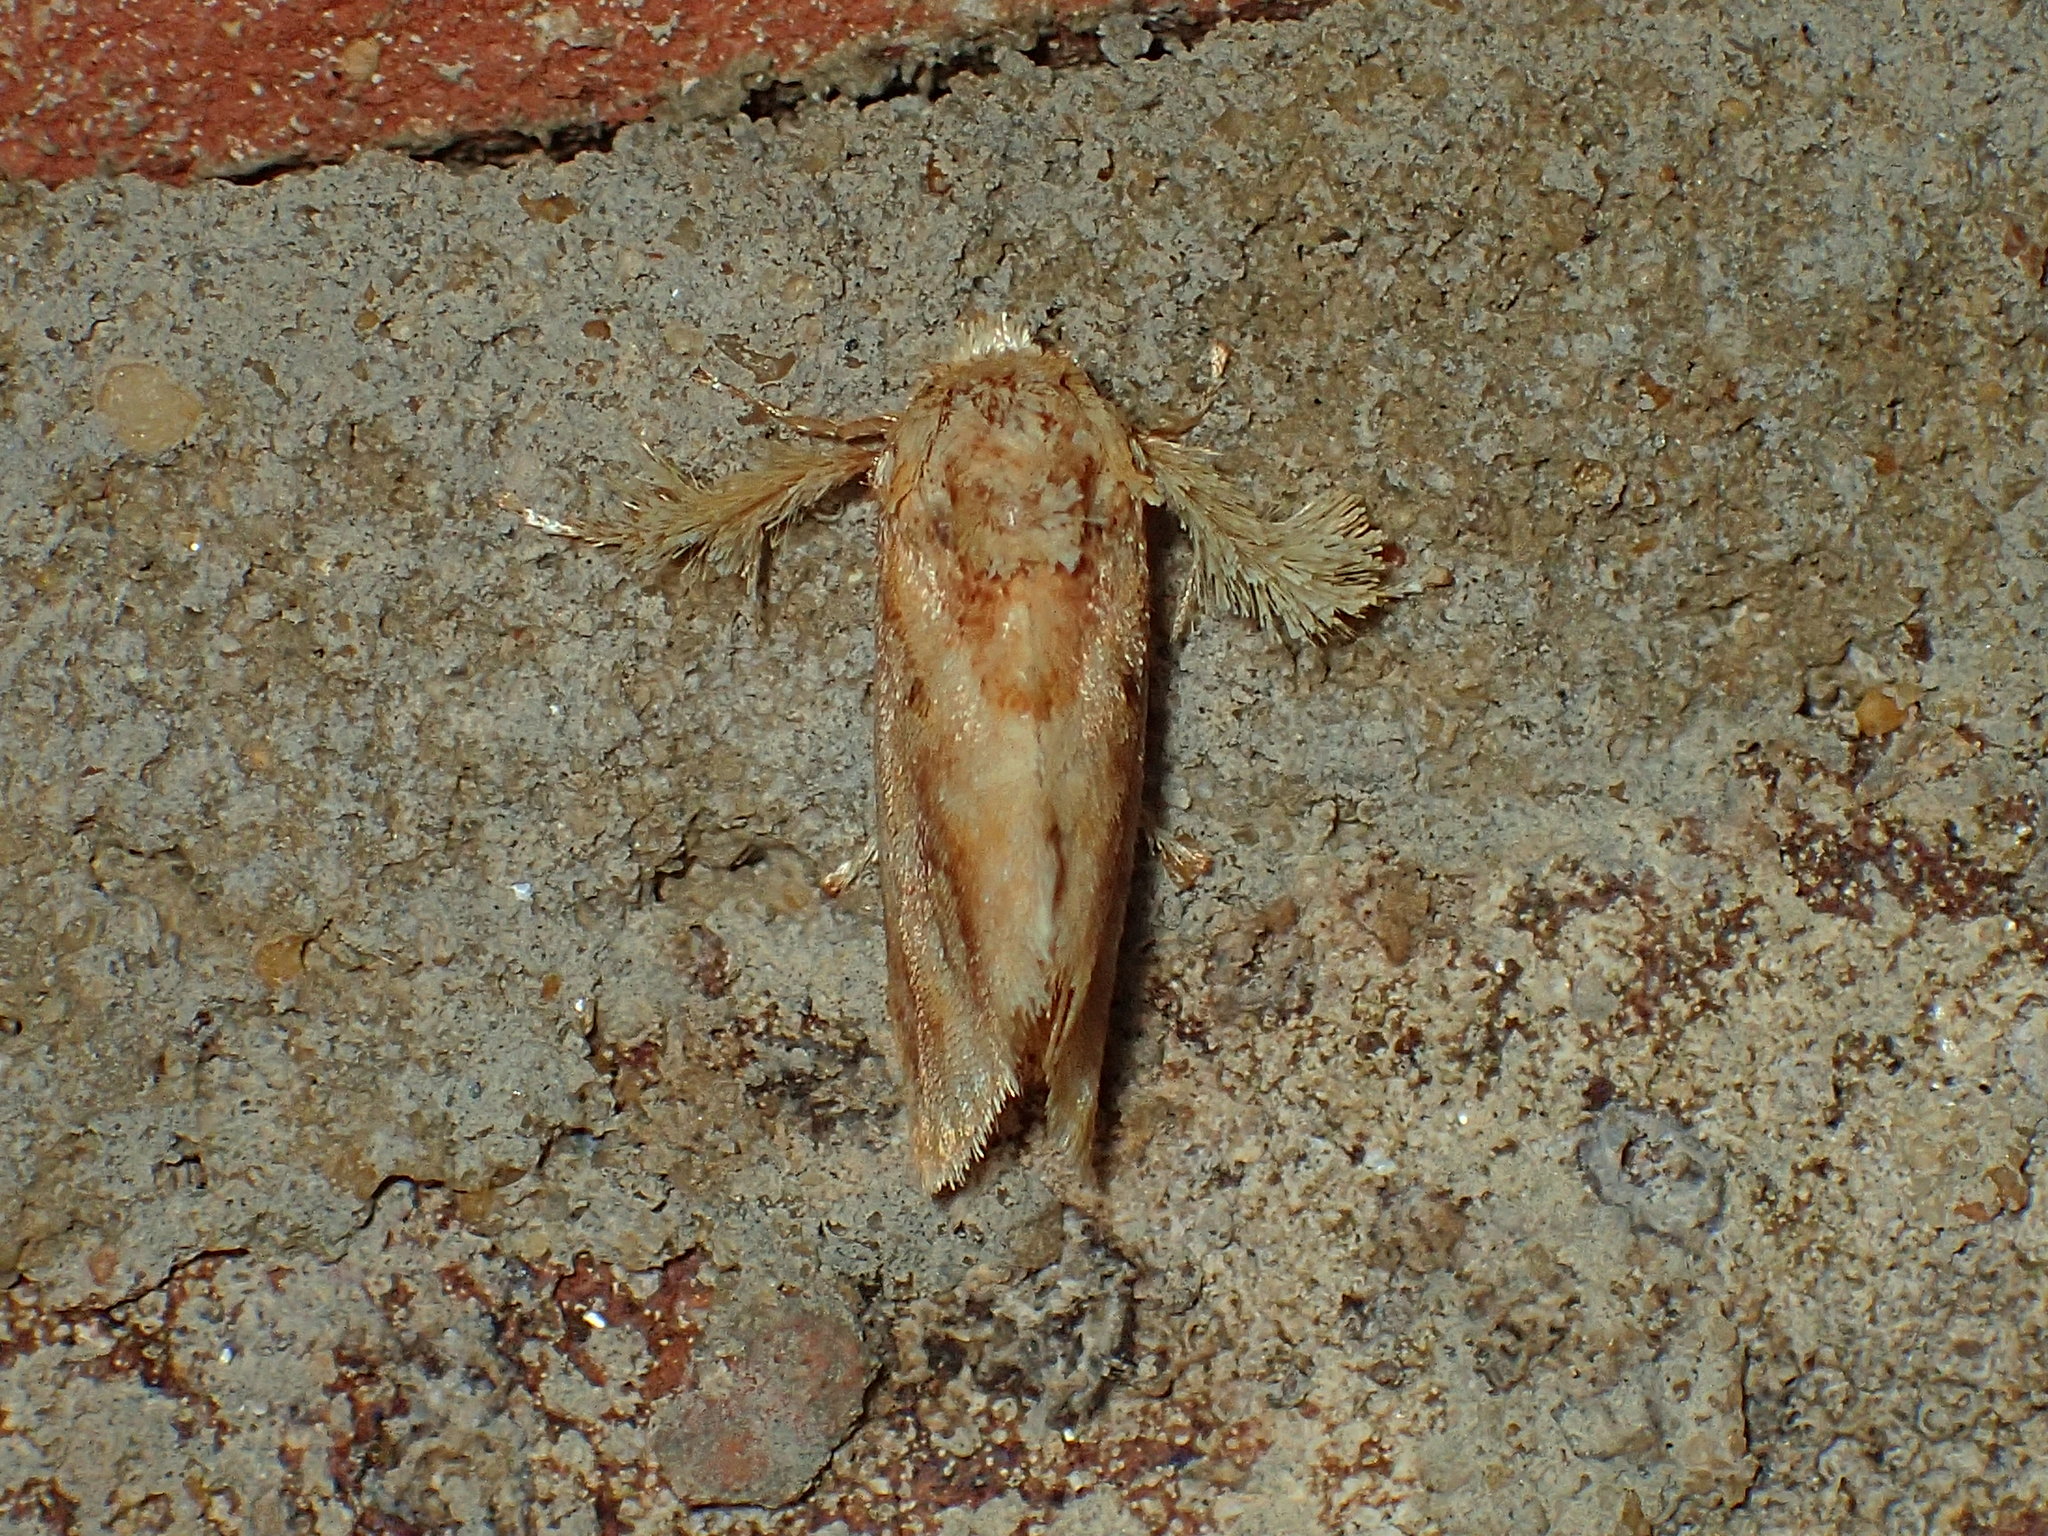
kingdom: Animalia
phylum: Arthropoda
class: Insecta
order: Lepidoptera
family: Limacodidae
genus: Isochaetes
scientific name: Isochaetes beutenmuelleri
